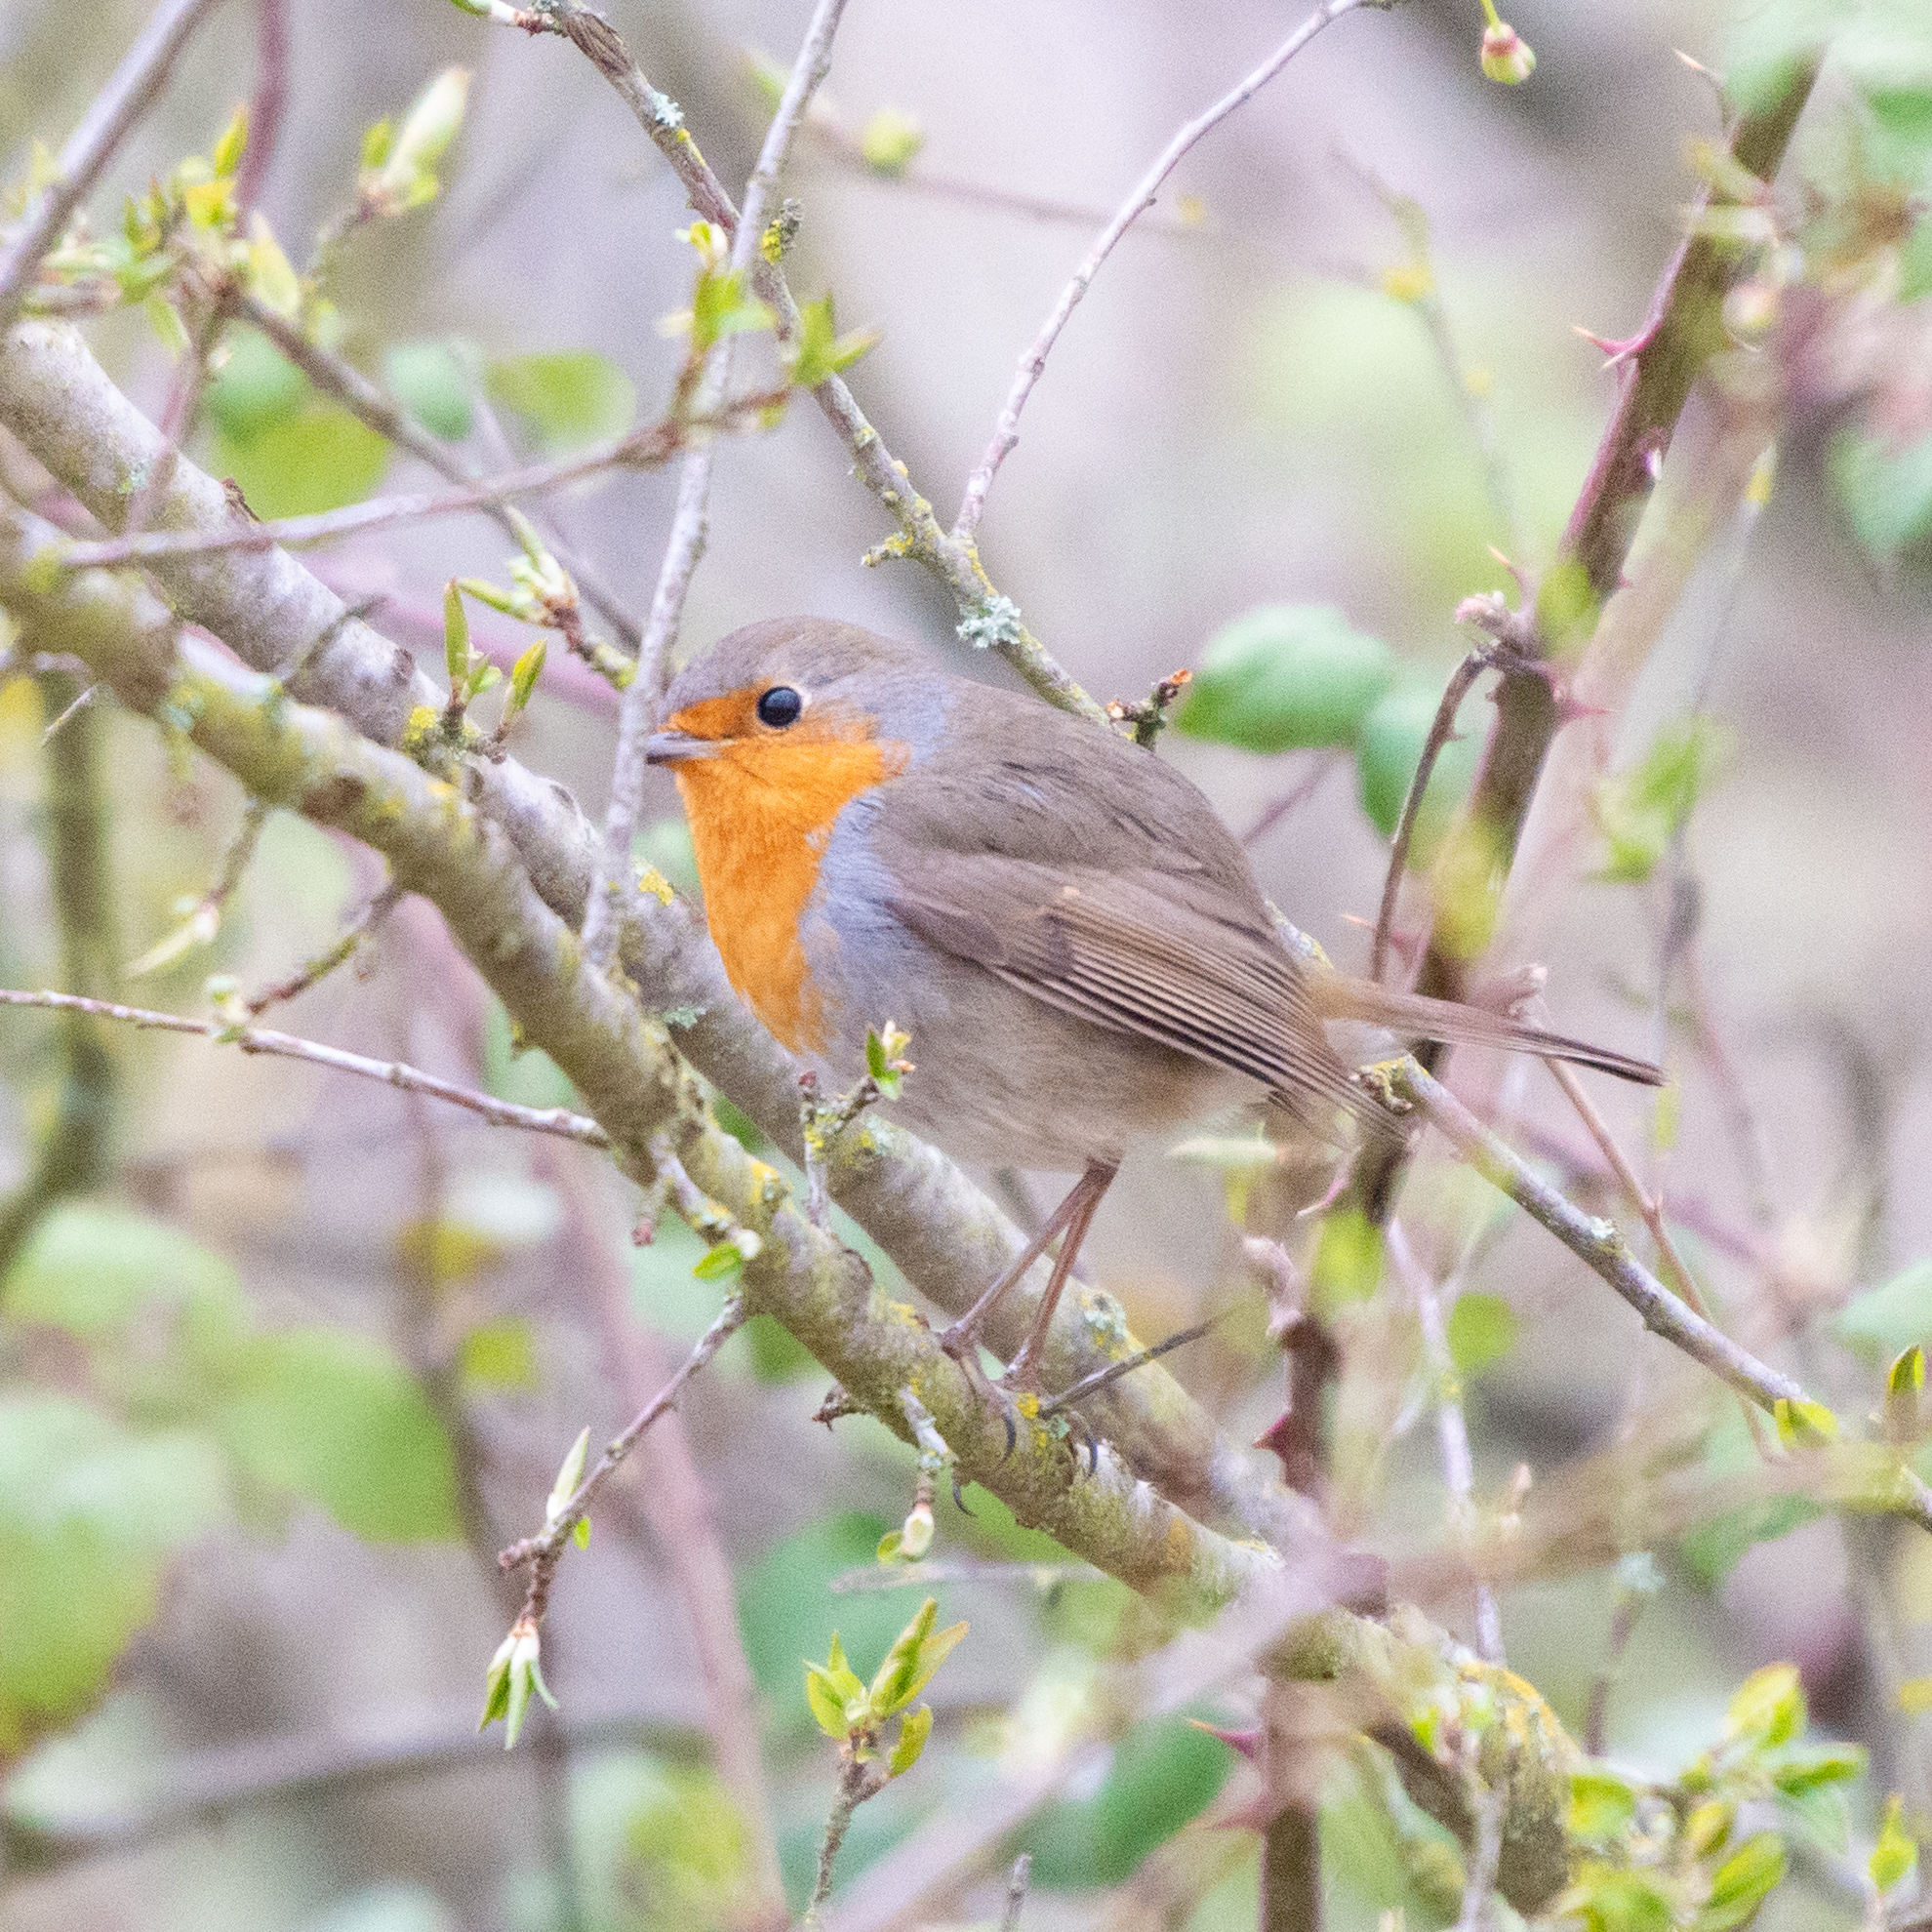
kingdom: Animalia
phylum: Chordata
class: Aves
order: Passeriformes
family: Muscicapidae
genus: Erithacus
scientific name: Erithacus rubecula
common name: European robin
